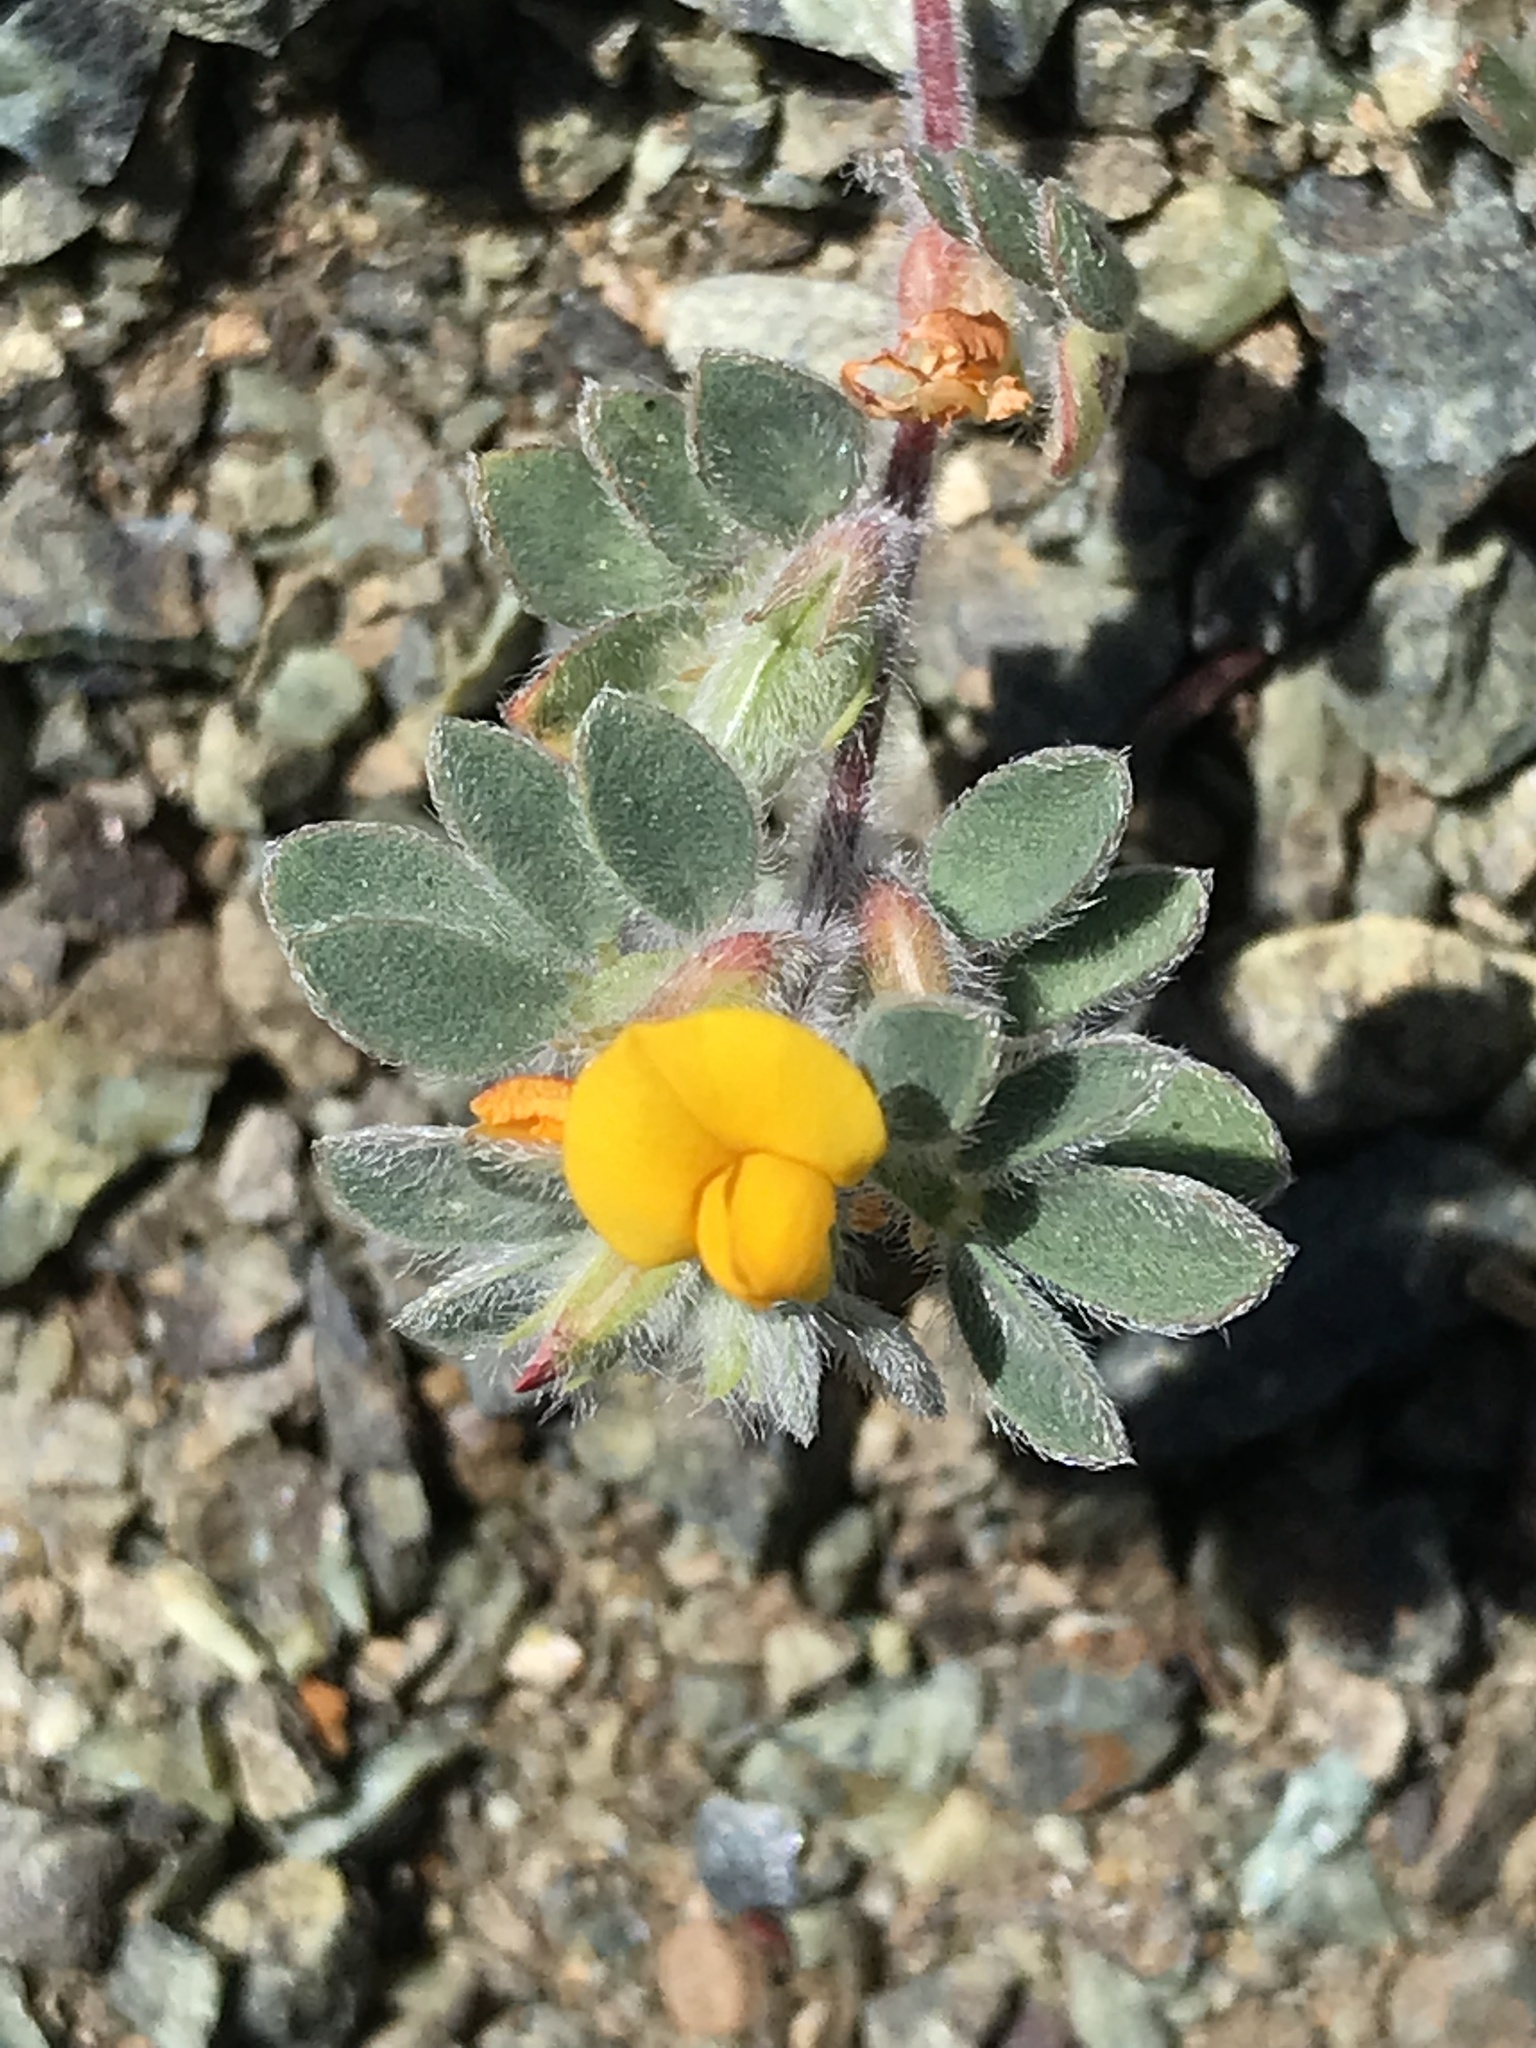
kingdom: Plantae
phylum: Tracheophyta
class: Magnoliopsida
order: Fabales
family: Fabaceae
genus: Acmispon
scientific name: Acmispon brachycarpus
